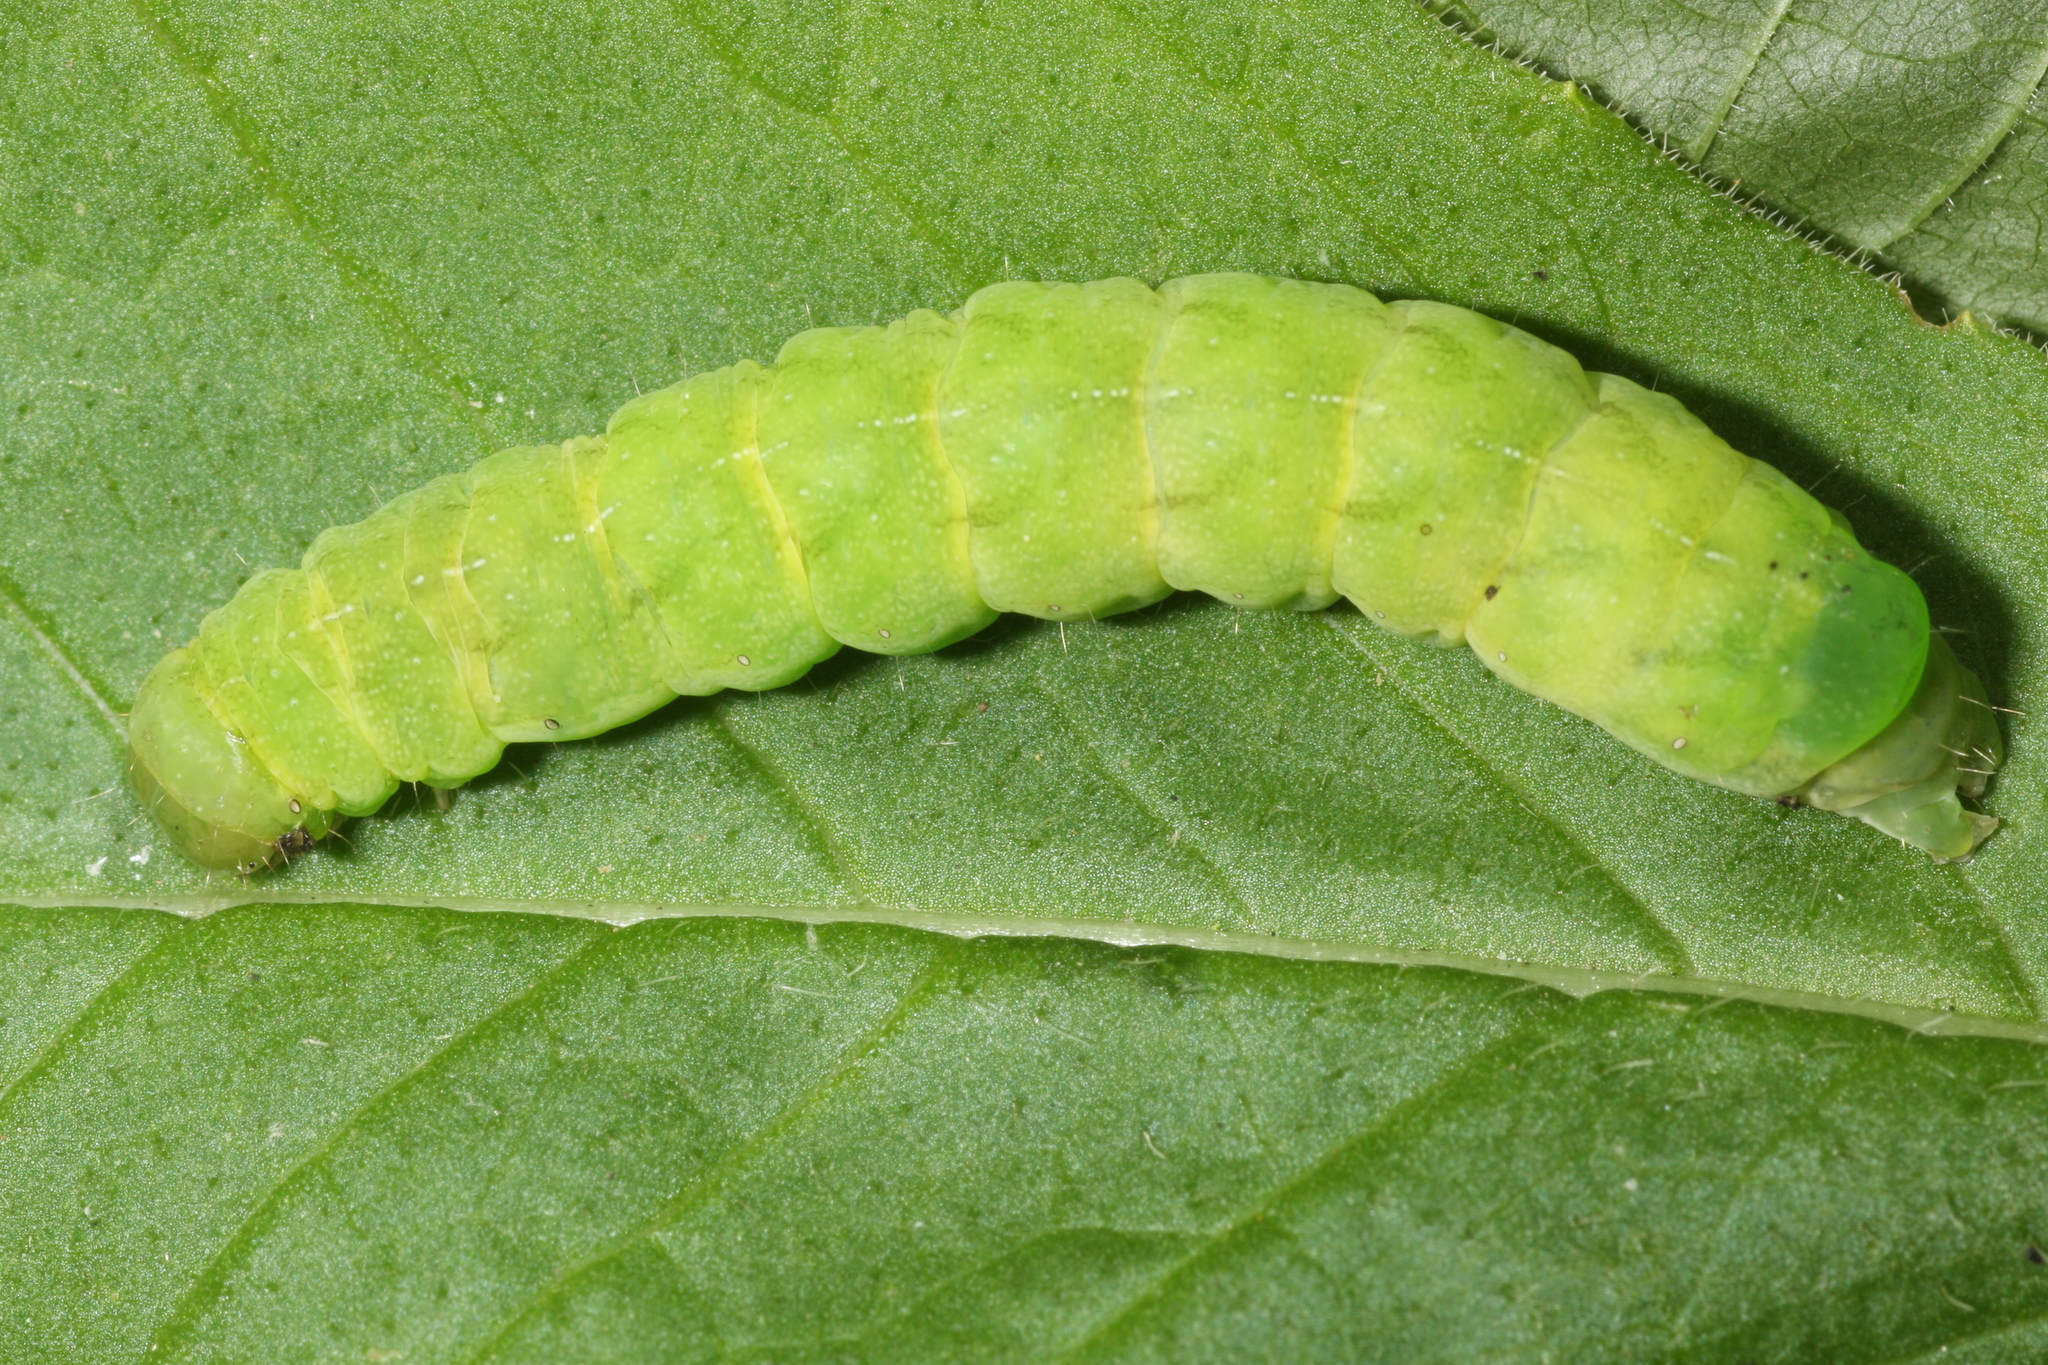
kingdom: Animalia
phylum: Arthropoda
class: Insecta
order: Lepidoptera
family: Noctuidae
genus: Phlogophora
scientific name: Phlogophora meticulosa
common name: Angle shades
